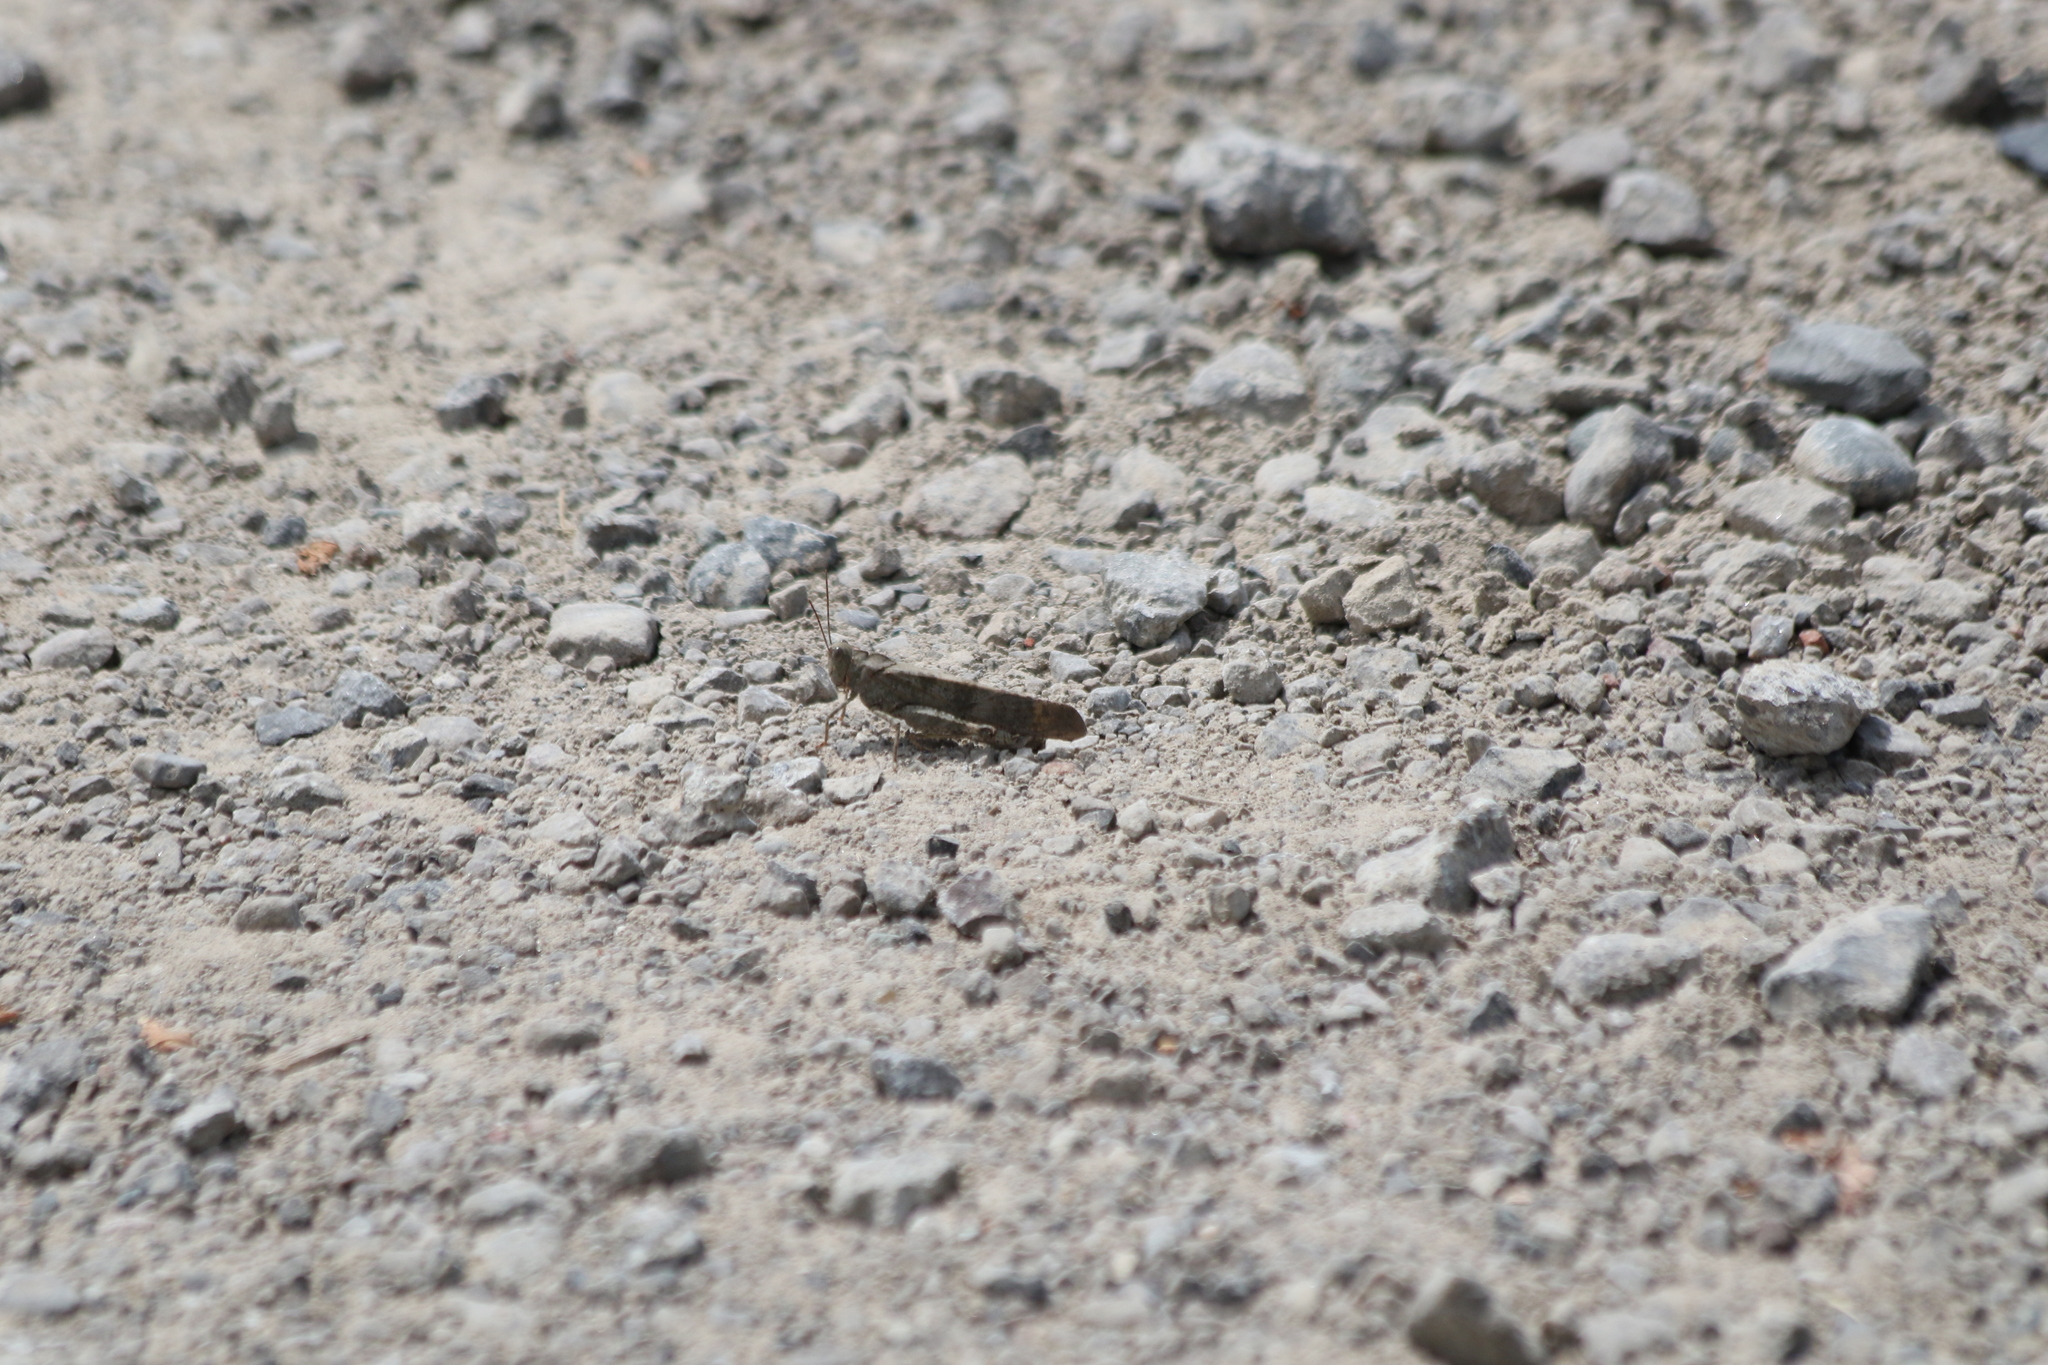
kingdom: Animalia
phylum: Arthropoda
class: Insecta
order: Orthoptera
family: Acrididae
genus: Dissosteira
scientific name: Dissosteira carolina
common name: Carolina grasshopper
